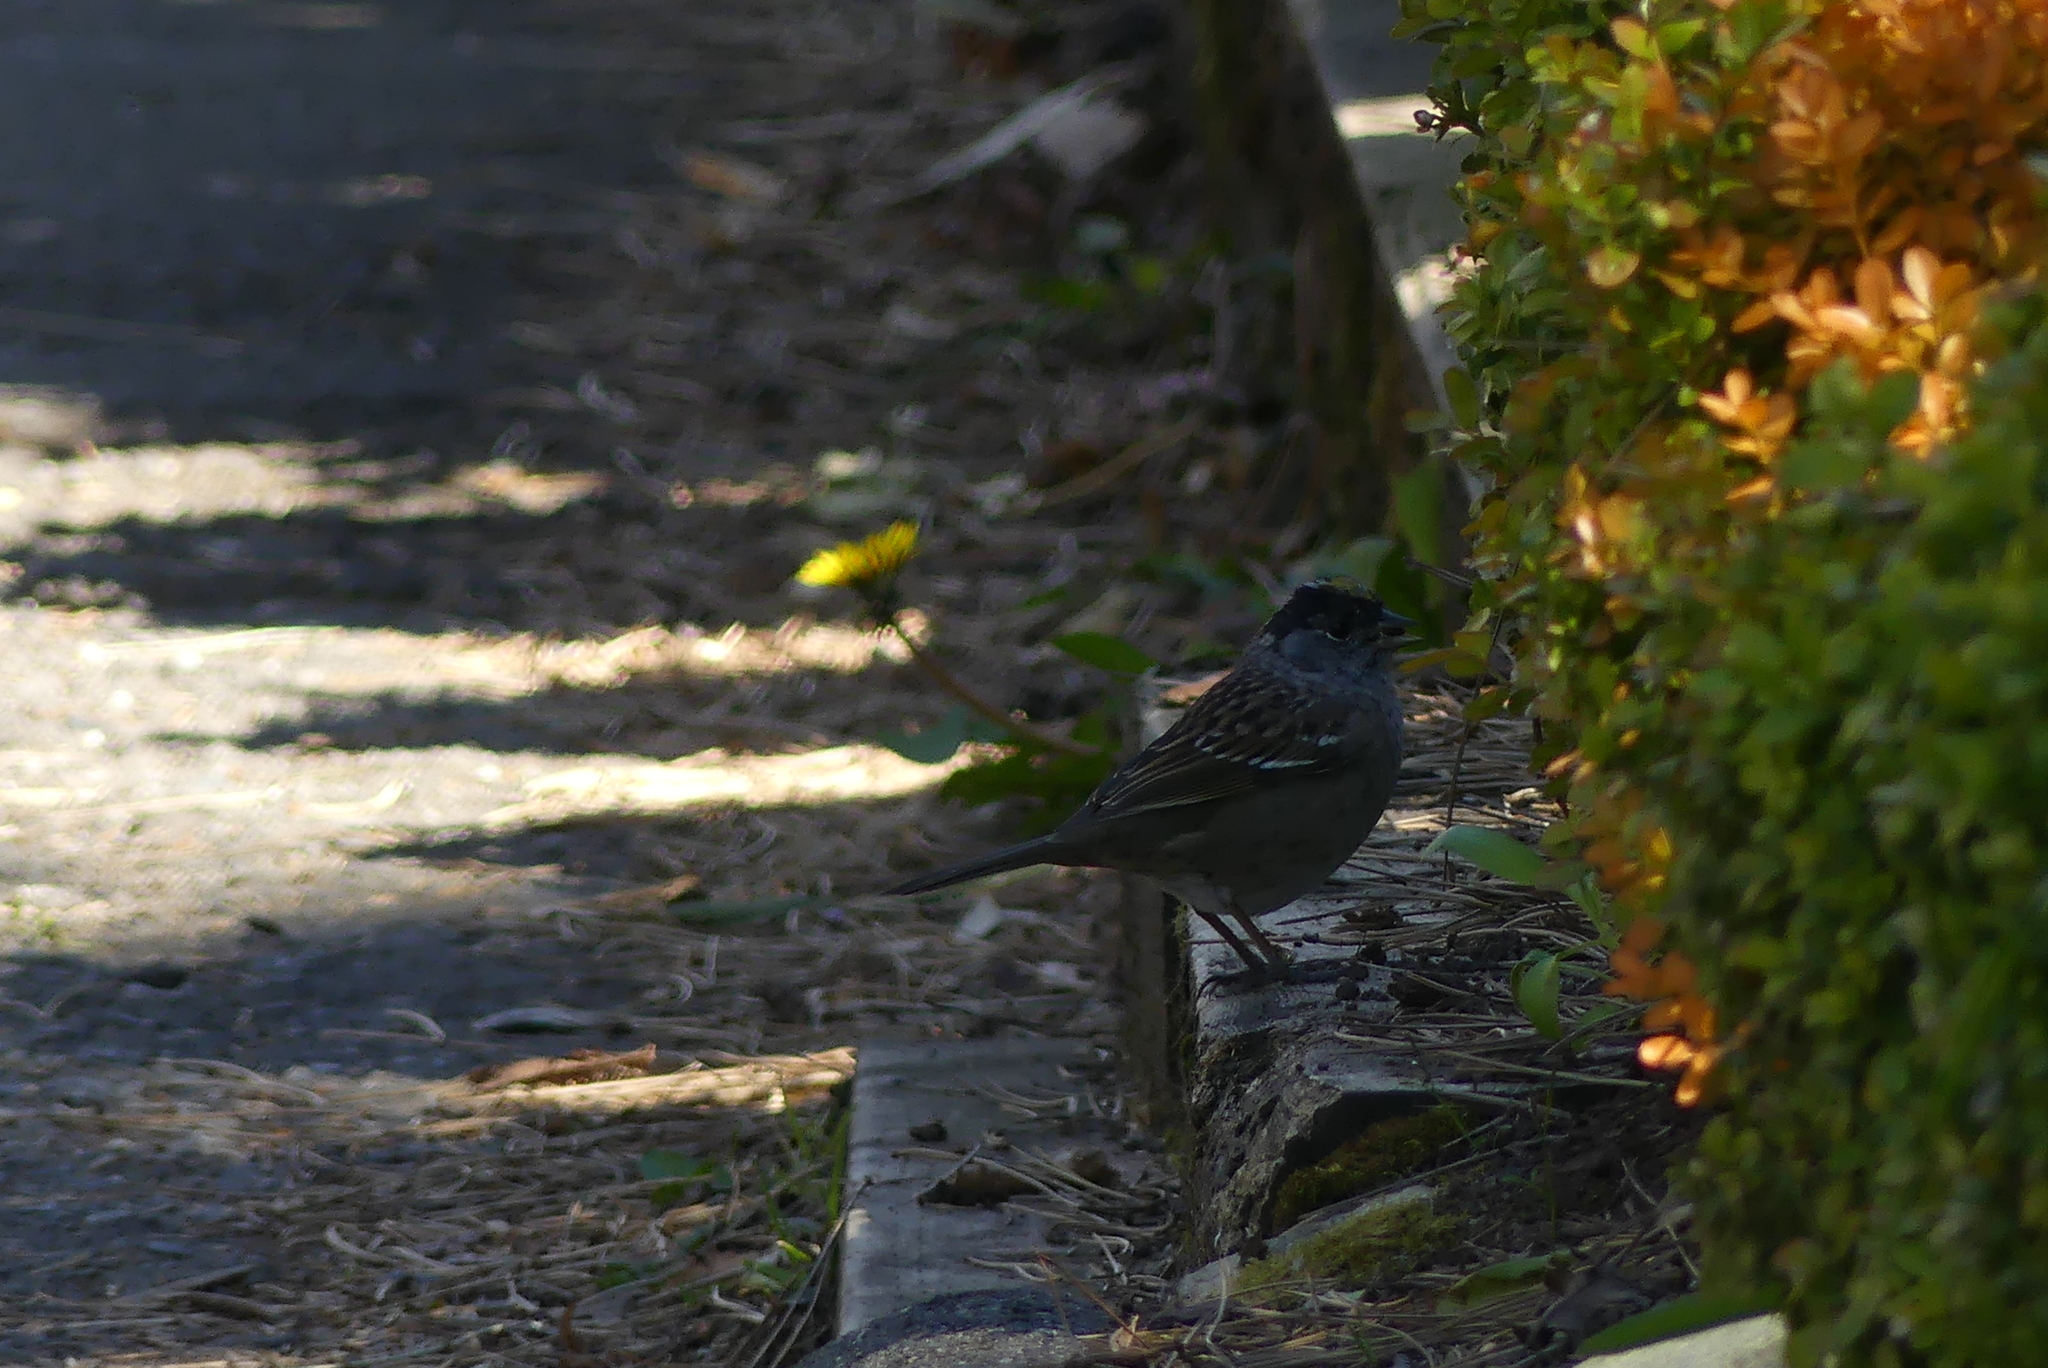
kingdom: Animalia
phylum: Chordata
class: Aves
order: Passeriformes
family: Passerellidae
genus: Zonotrichia
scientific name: Zonotrichia atricapilla
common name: Golden-crowned sparrow
